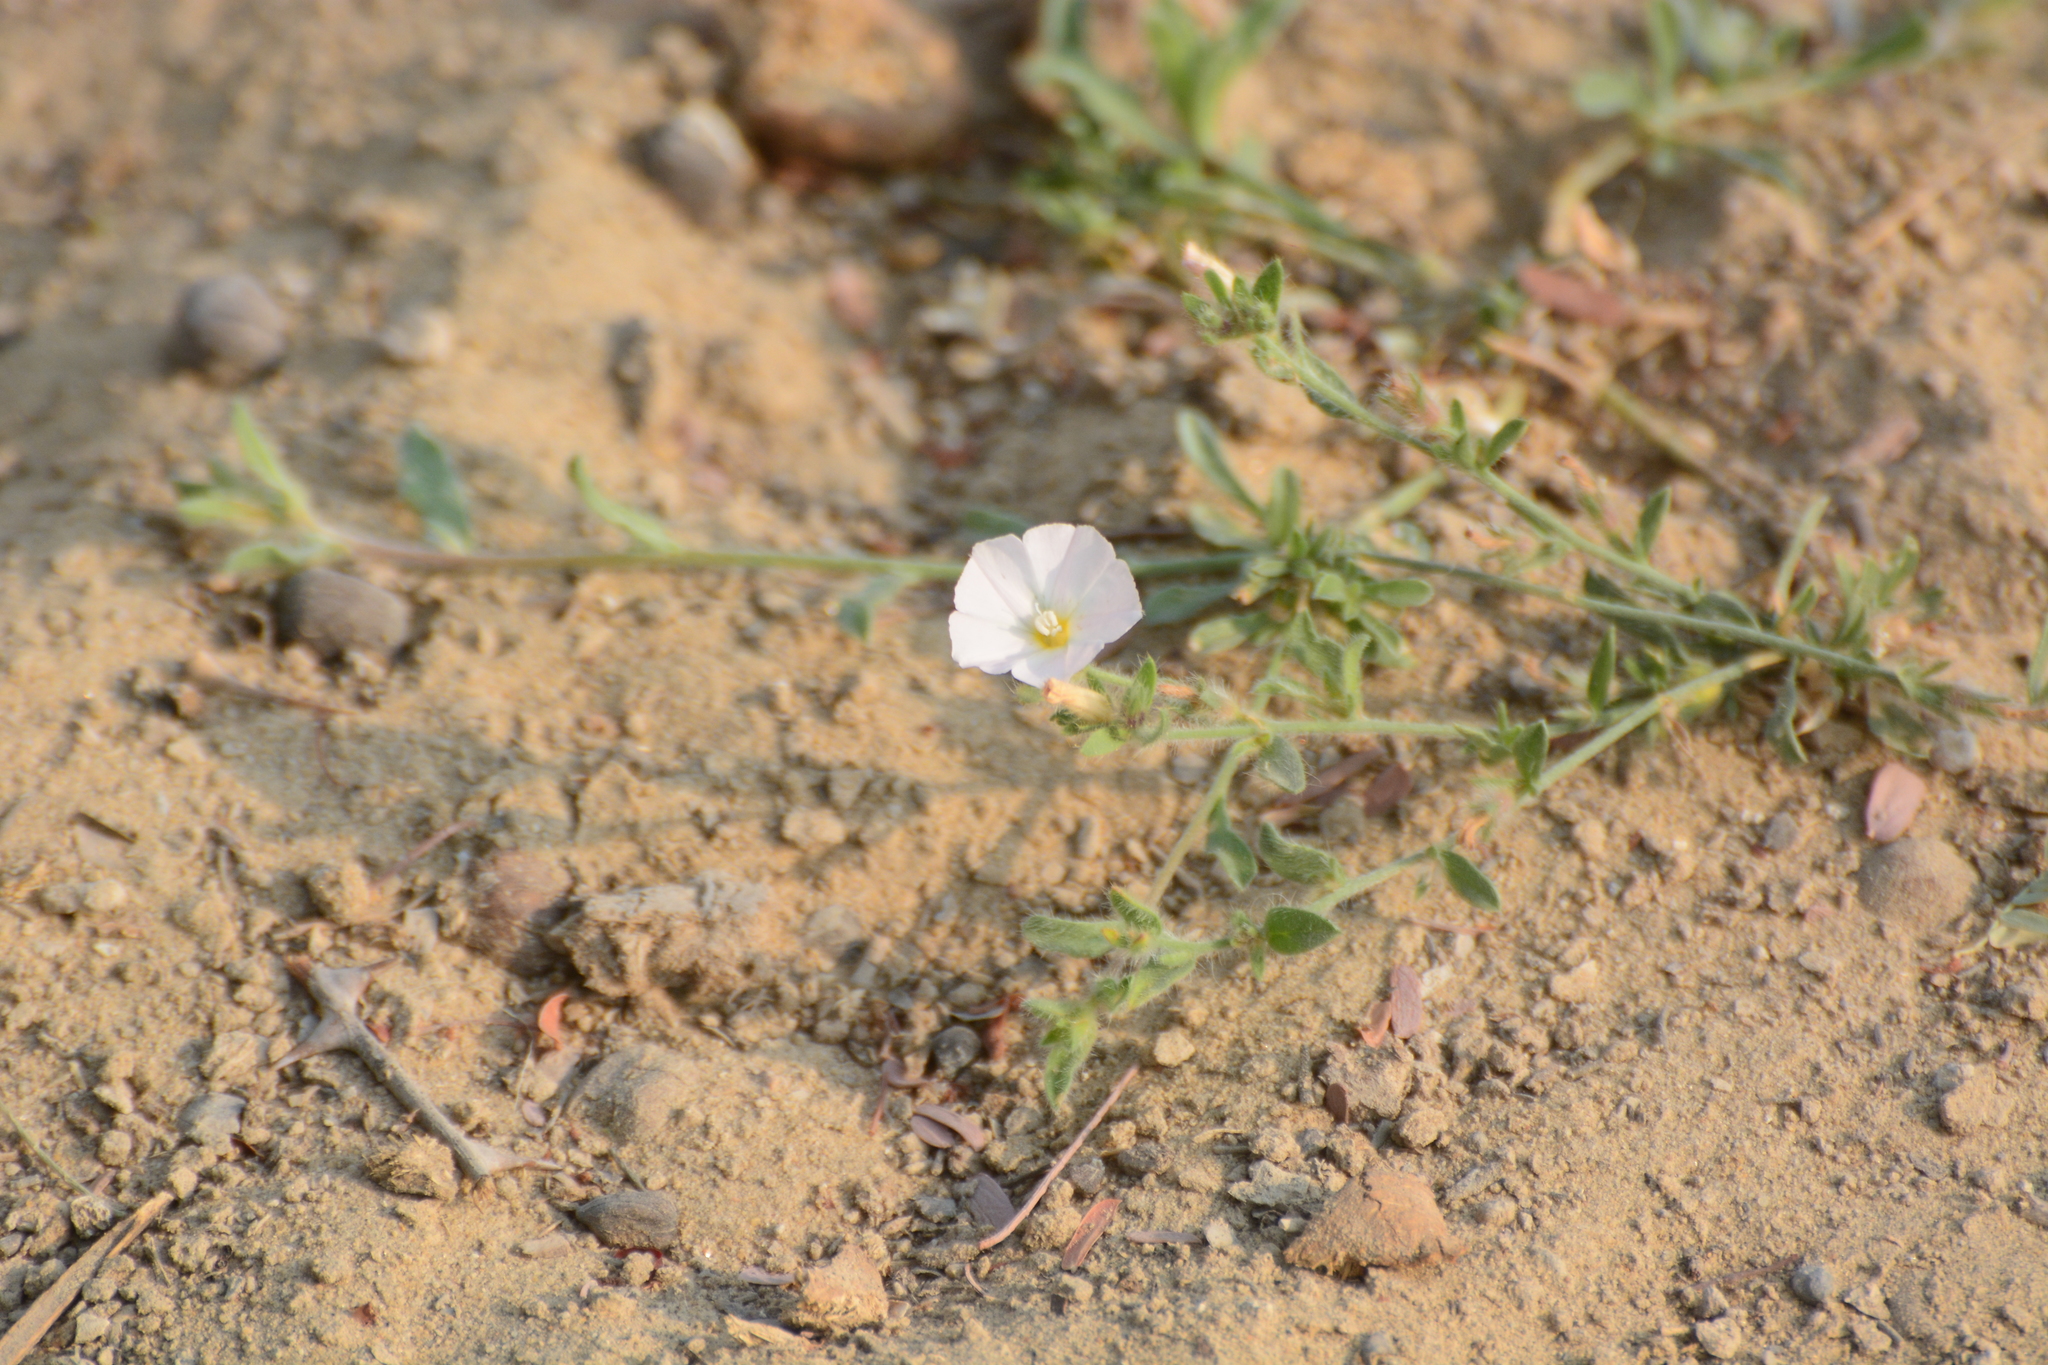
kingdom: Plantae
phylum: Tracheophyta
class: Magnoliopsida
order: Solanales
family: Convolvulaceae
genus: Convolvulus
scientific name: Convolvulus prostratus
